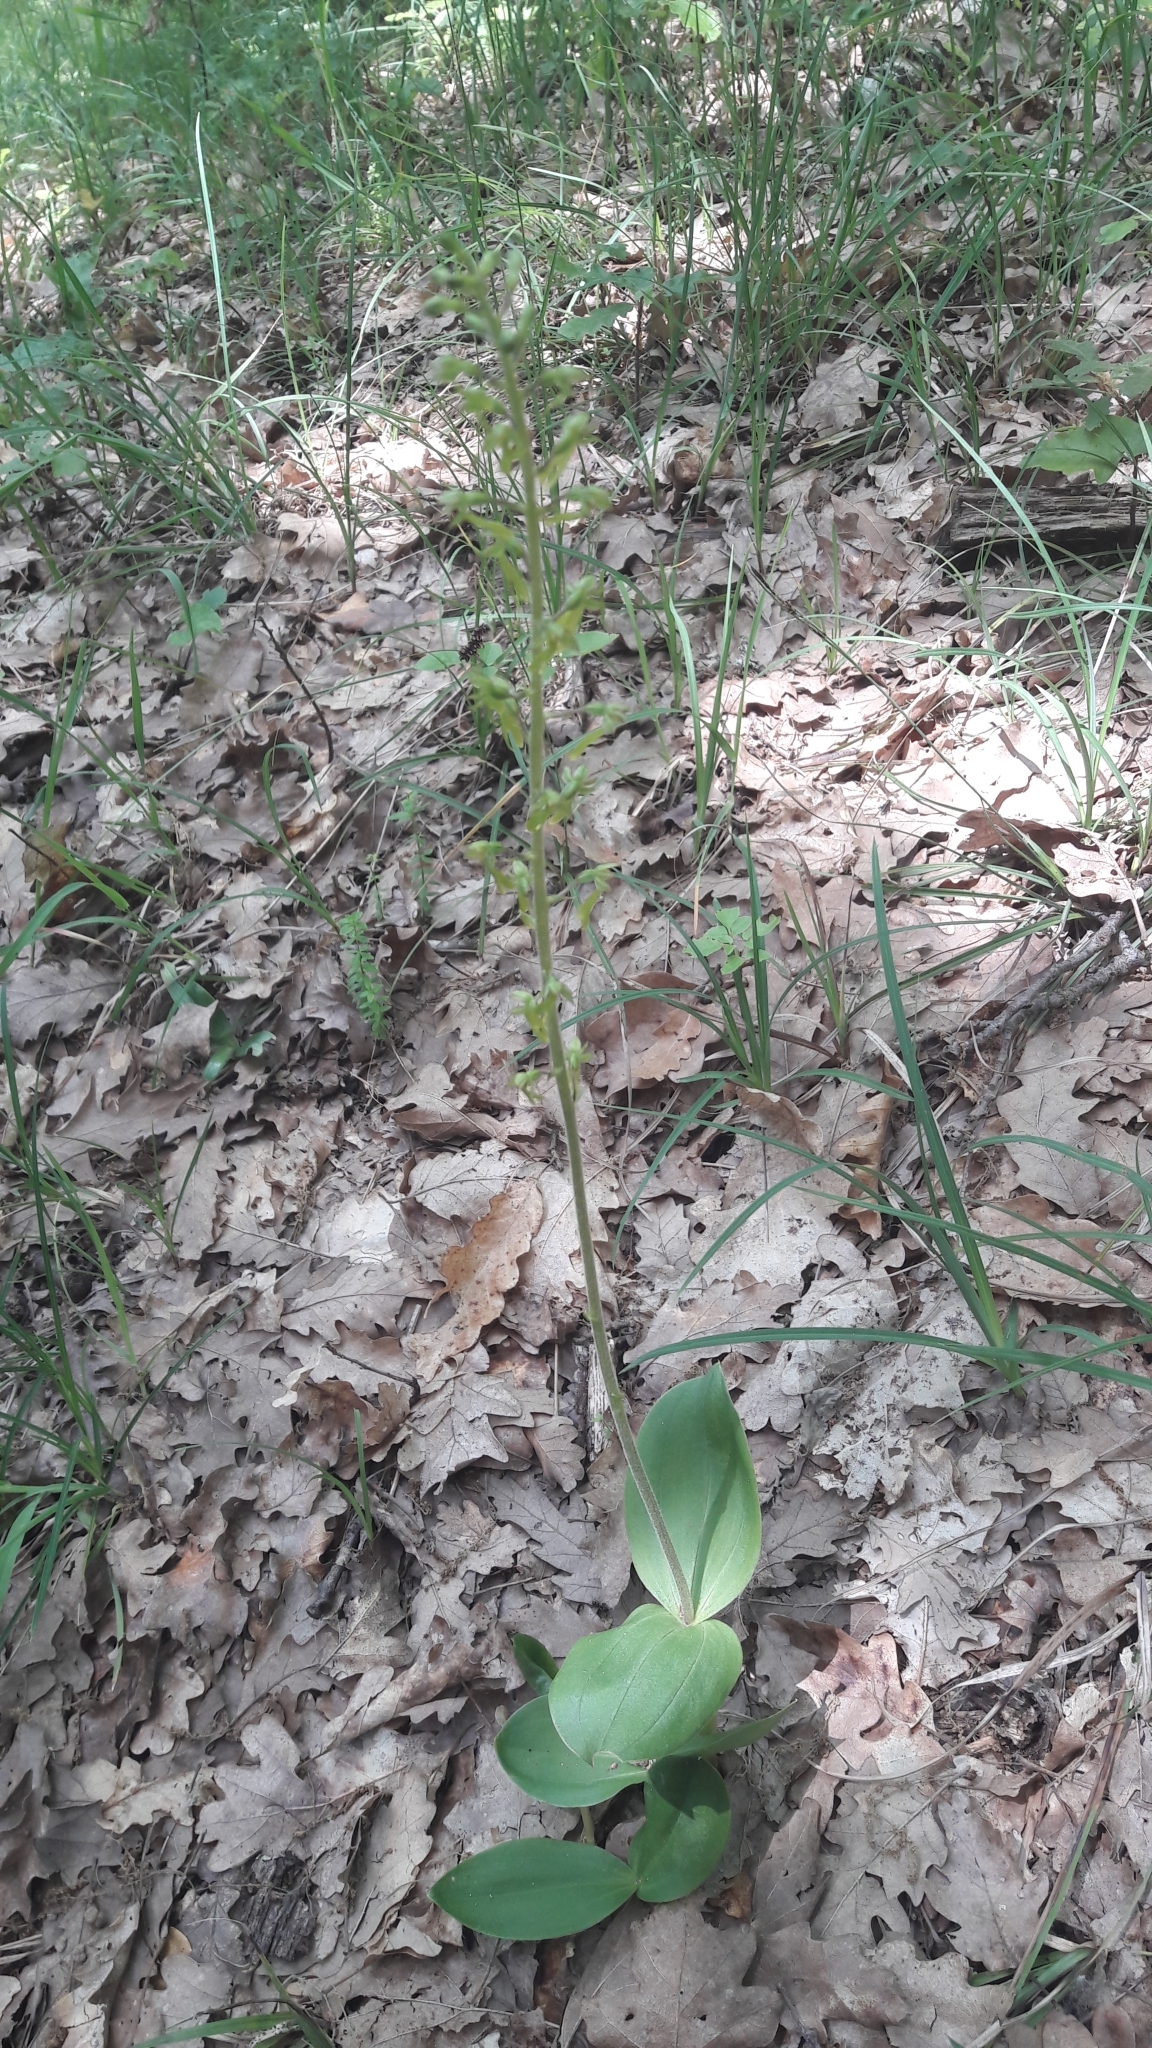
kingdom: Plantae
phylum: Tracheophyta
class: Liliopsida
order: Asparagales
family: Orchidaceae
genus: Neottia
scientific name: Neottia ovata
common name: Common twayblade
